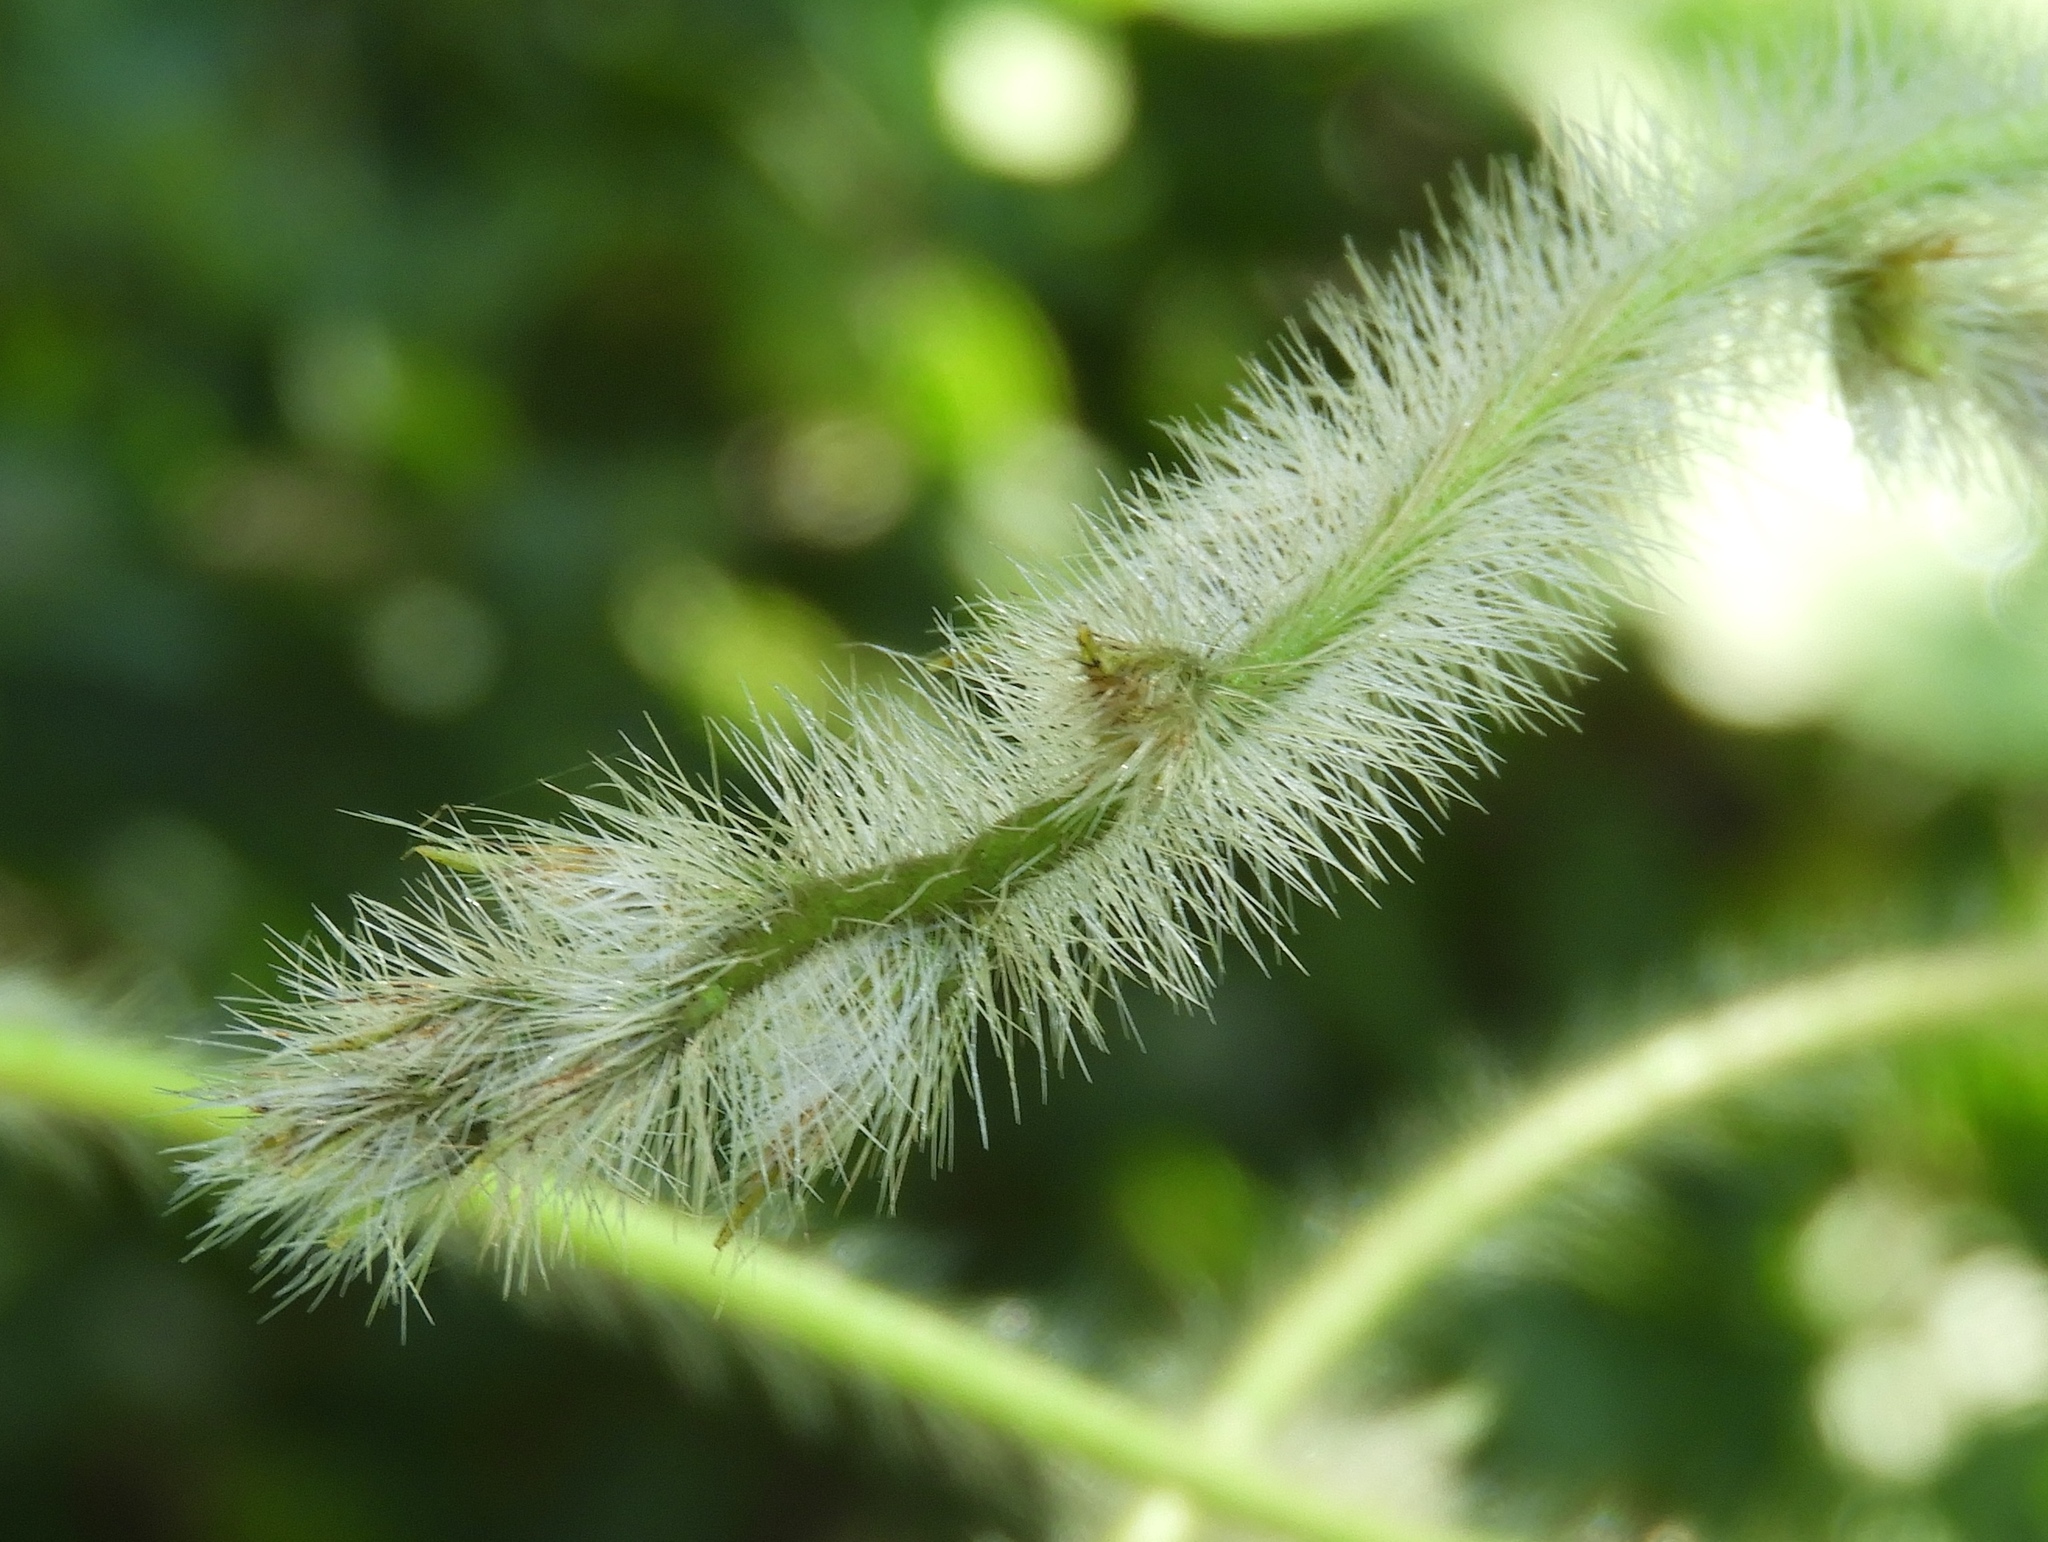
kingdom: Plantae
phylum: Tracheophyta
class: Magnoliopsida
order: Solanales
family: Convolvulaceae
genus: Distimake
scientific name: Distimake aegyptius
